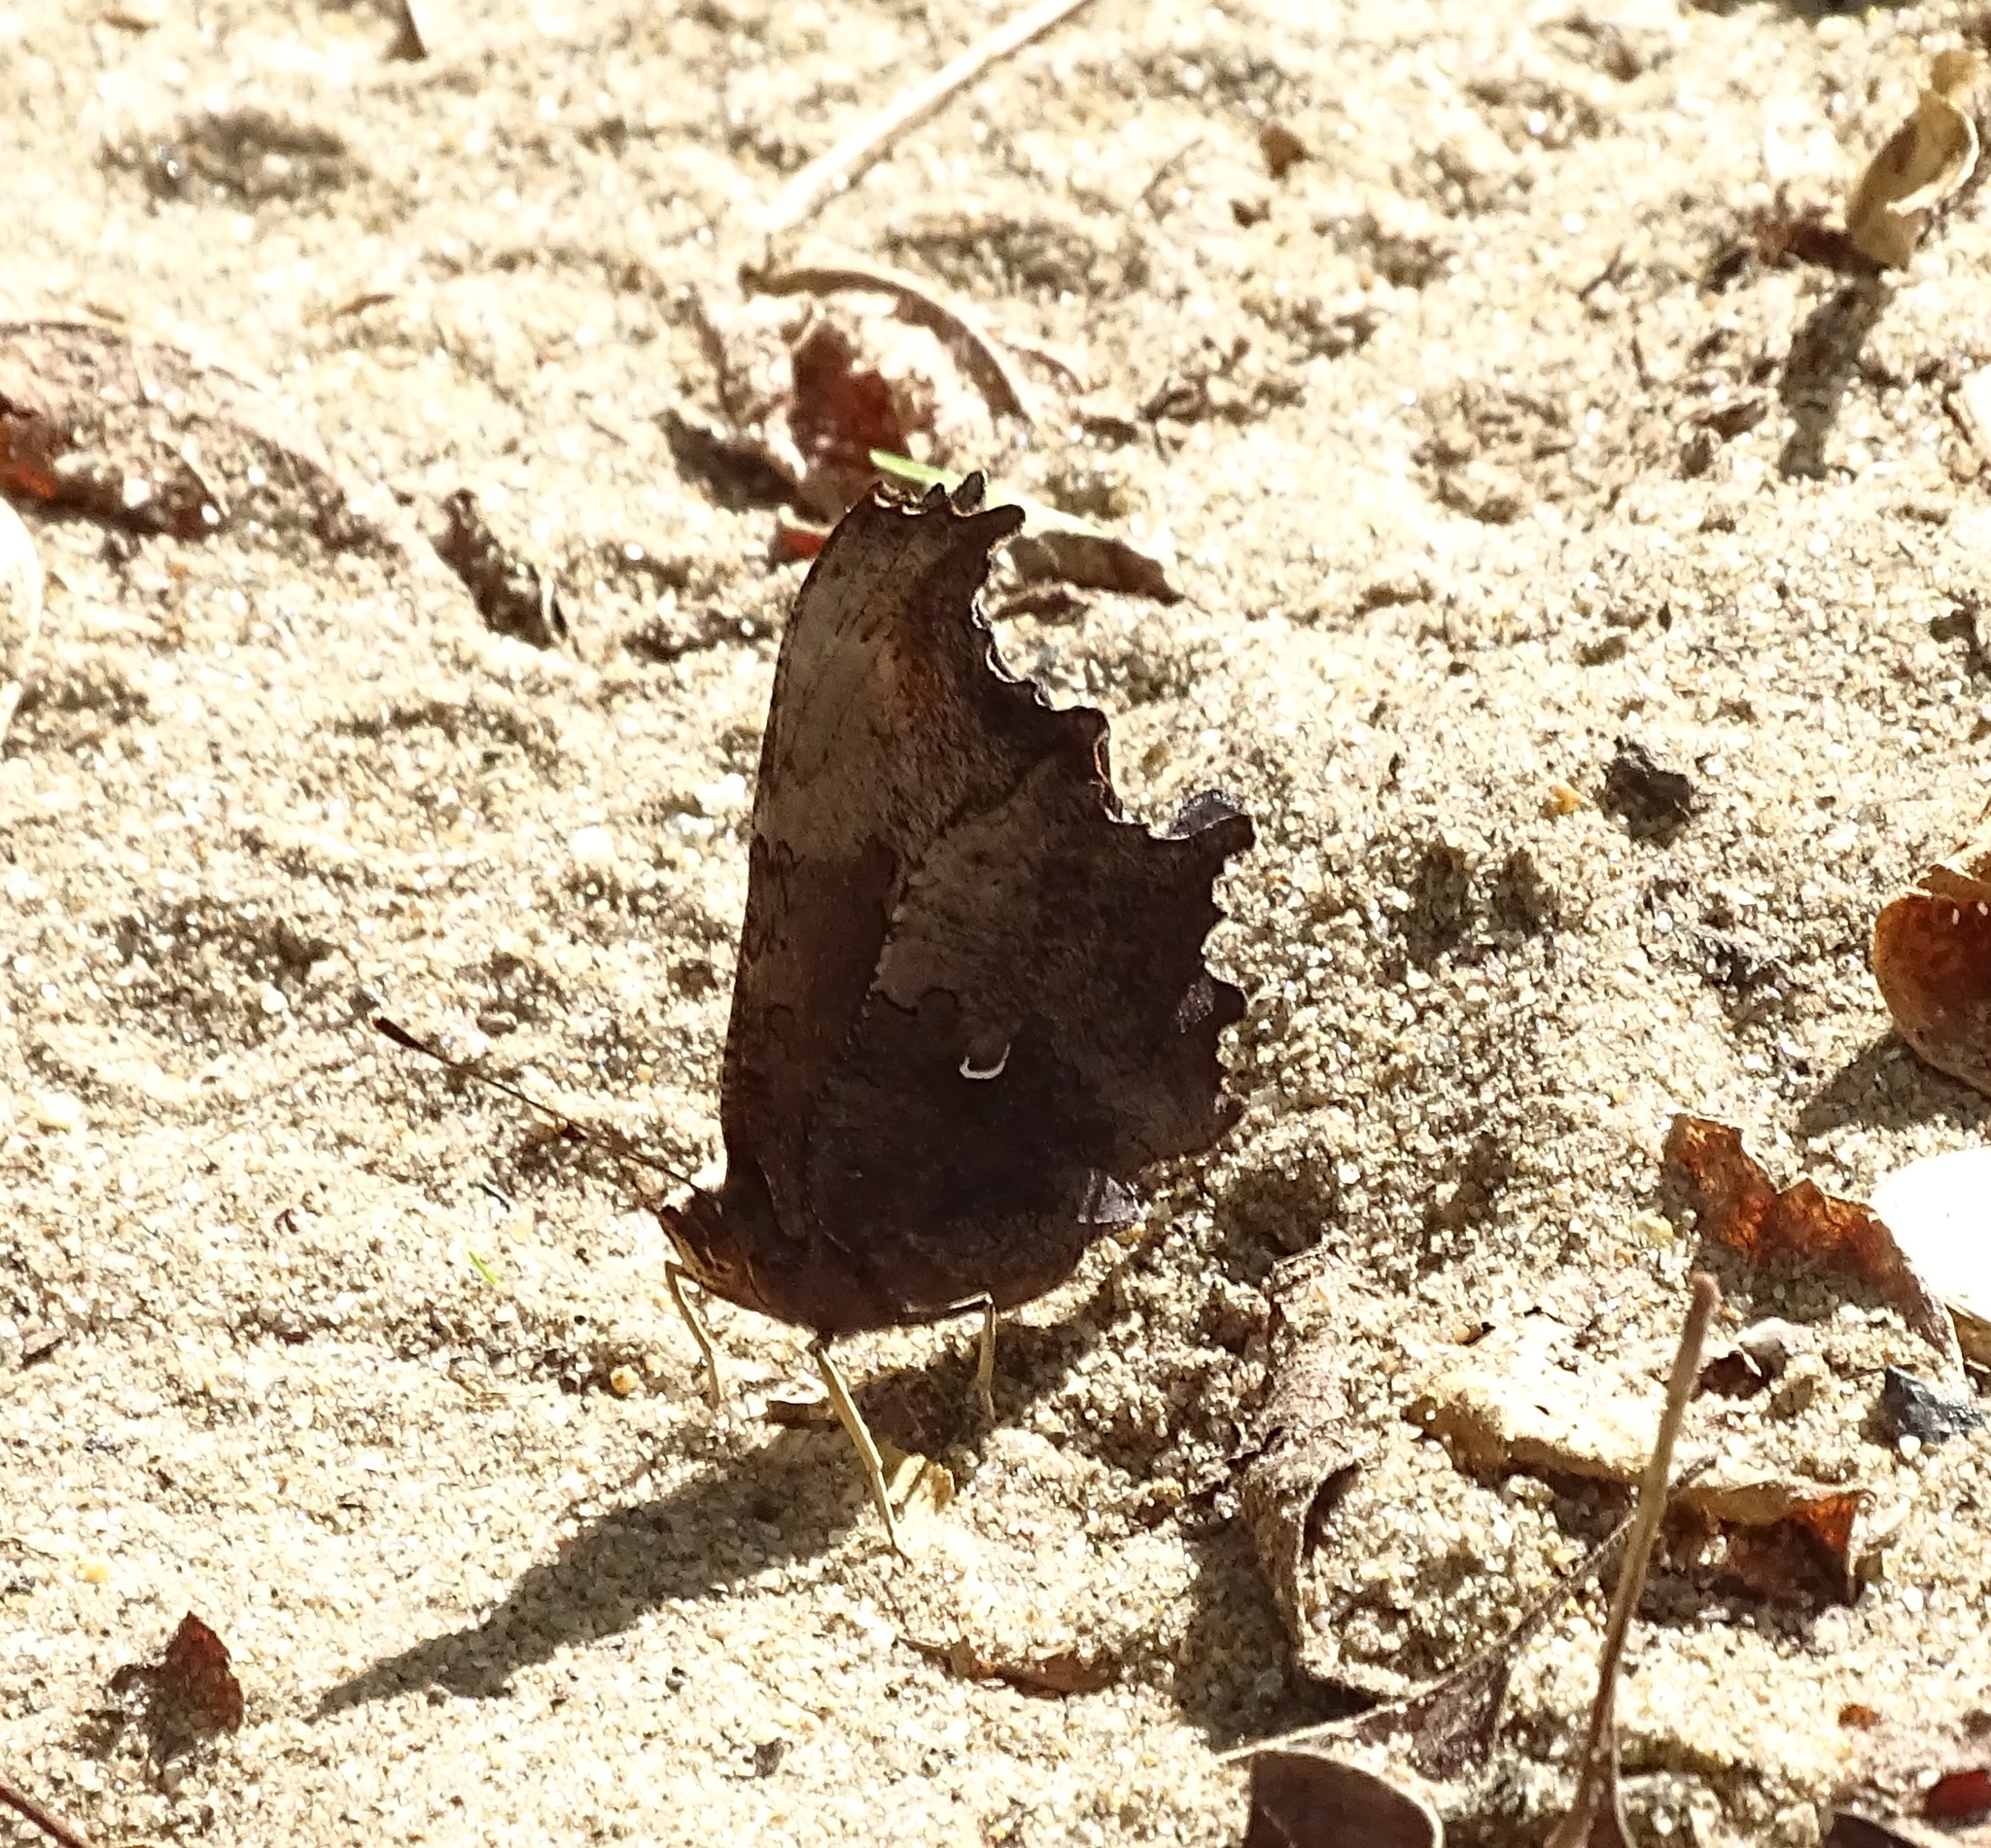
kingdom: Animalia
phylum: Arthropoda
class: Insecta
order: Lepidoptera
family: Nymphalidae
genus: Polygonia
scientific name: Polygonia comma
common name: Eastern comma
